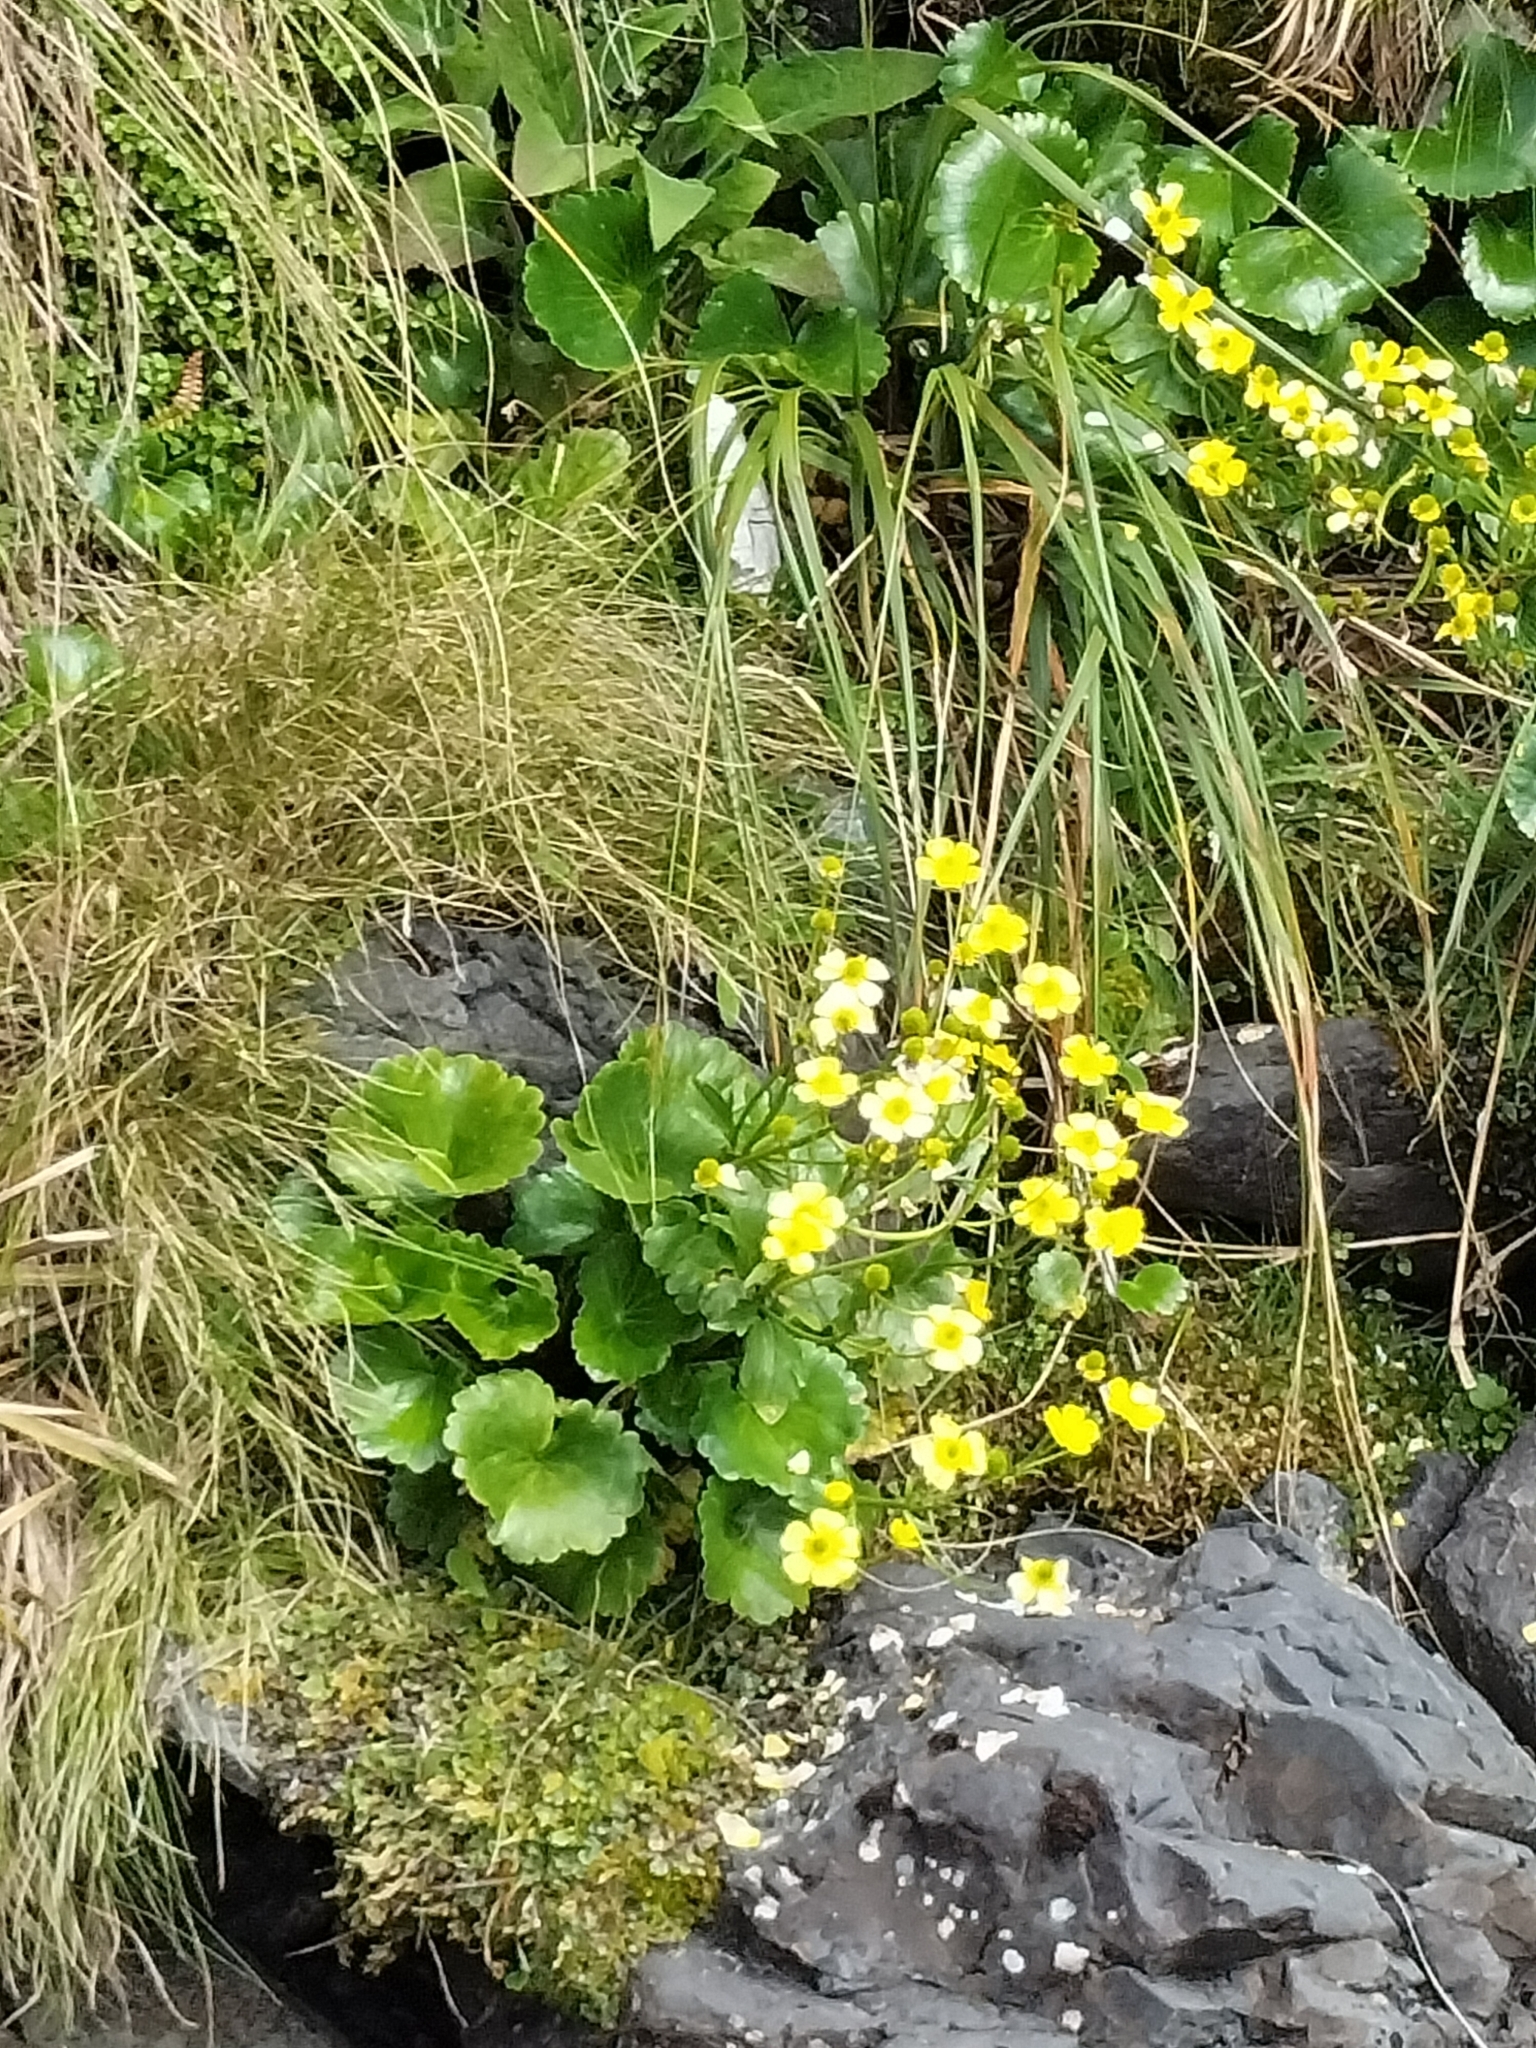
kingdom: Plantae
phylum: Tracheophyta
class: Magnoliopsida
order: Ranunculales
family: Ranunculaceae
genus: Ranunculus
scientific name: Ranunculus insignis
